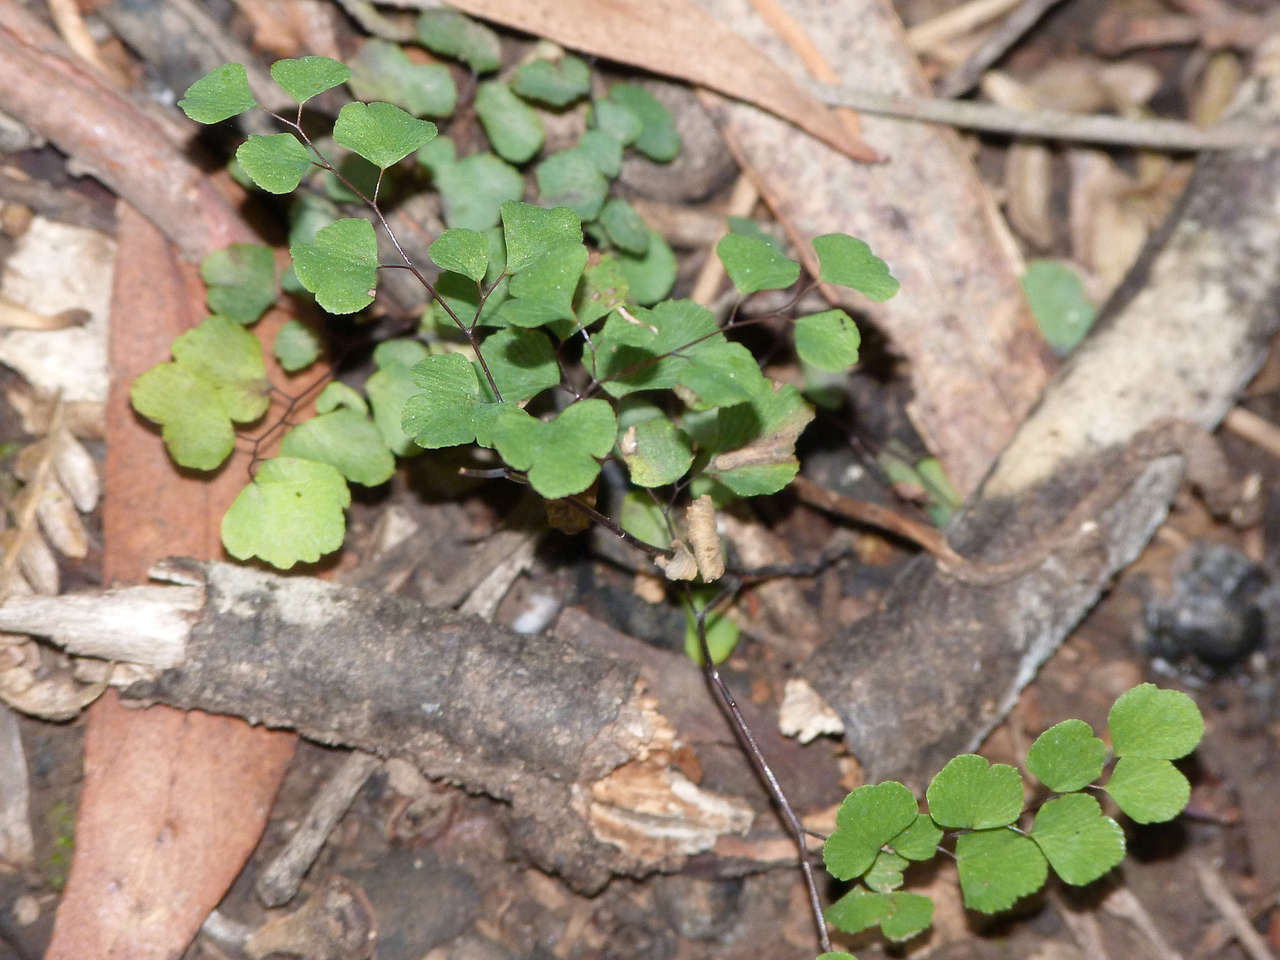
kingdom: Plantae
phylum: Tracheophyta
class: Polypodiopsida
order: Polypodiales
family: Pteridaceae
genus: Adiantum
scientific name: Adiantum aethiopicum
